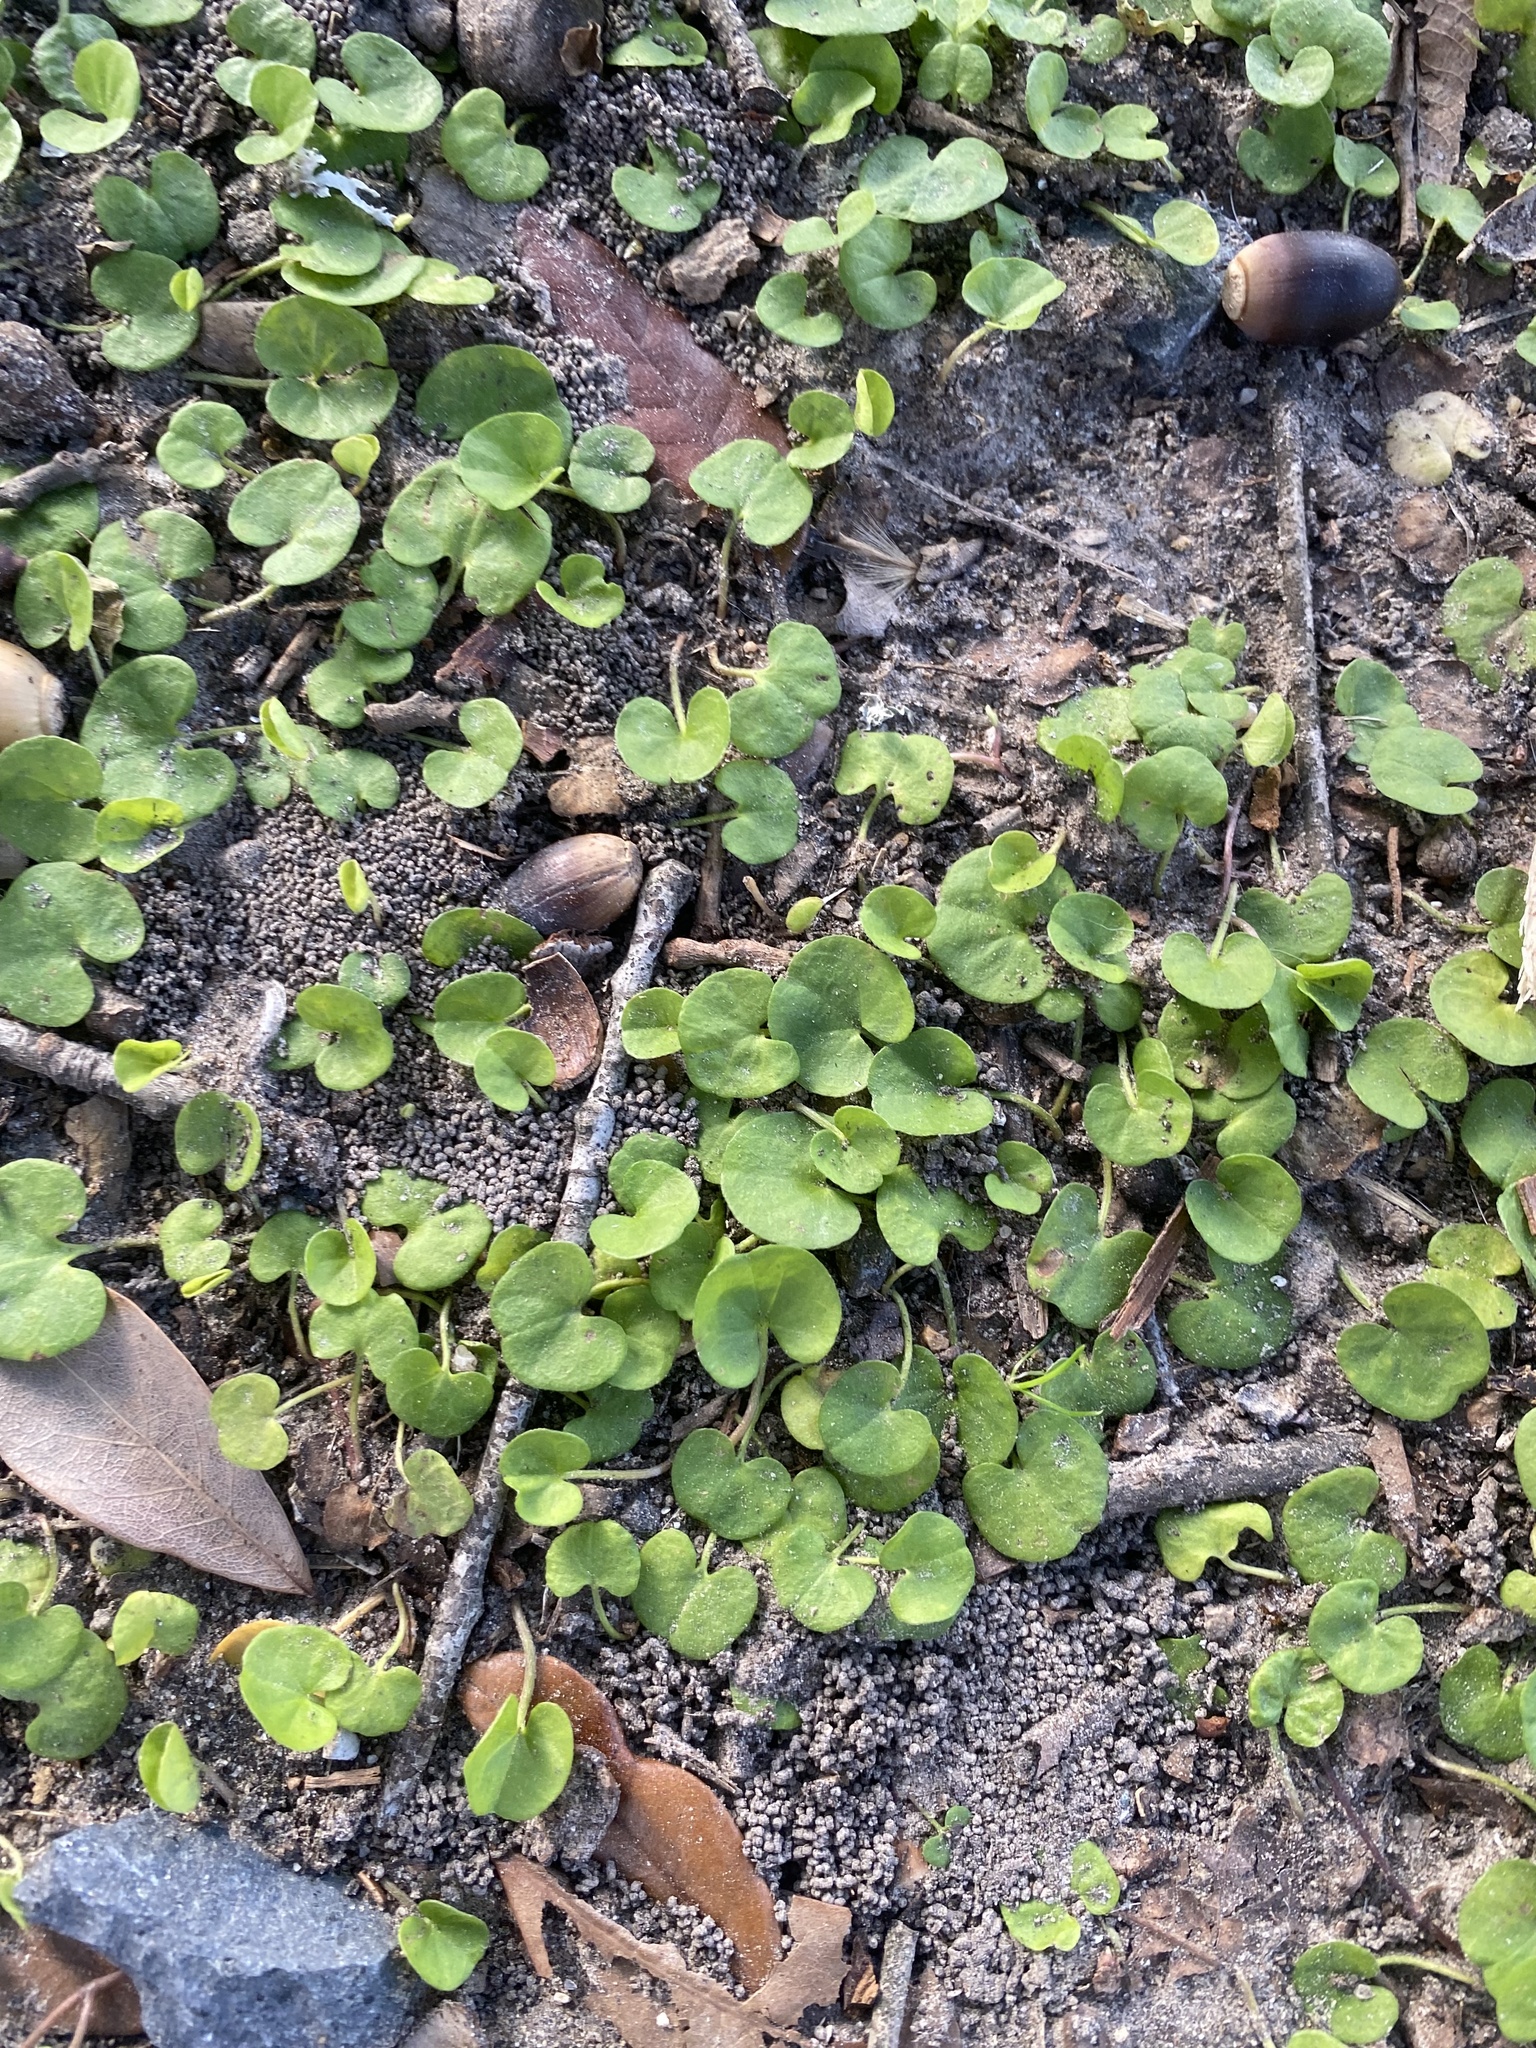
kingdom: Plantae
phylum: Tracheophyta
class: Magnoliopsida
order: Solanales
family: Convolvulaceae
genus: Dichondra
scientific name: Dichondra carolinensis
